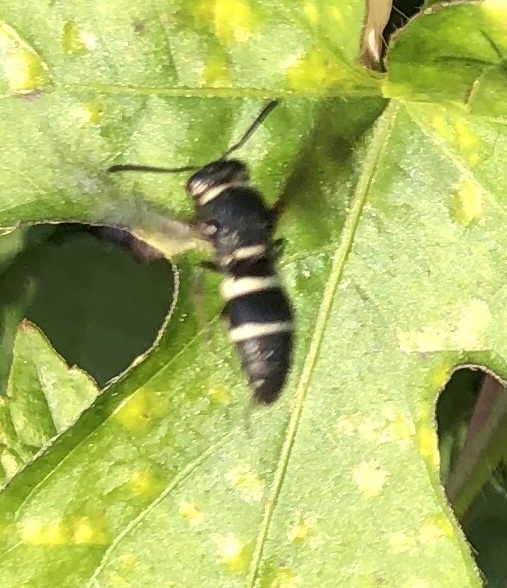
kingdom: Animalia
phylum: Arthropoda
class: Insecta
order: Hymenoptera
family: Eumenidae
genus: Euodynerus
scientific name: Euodynerus
